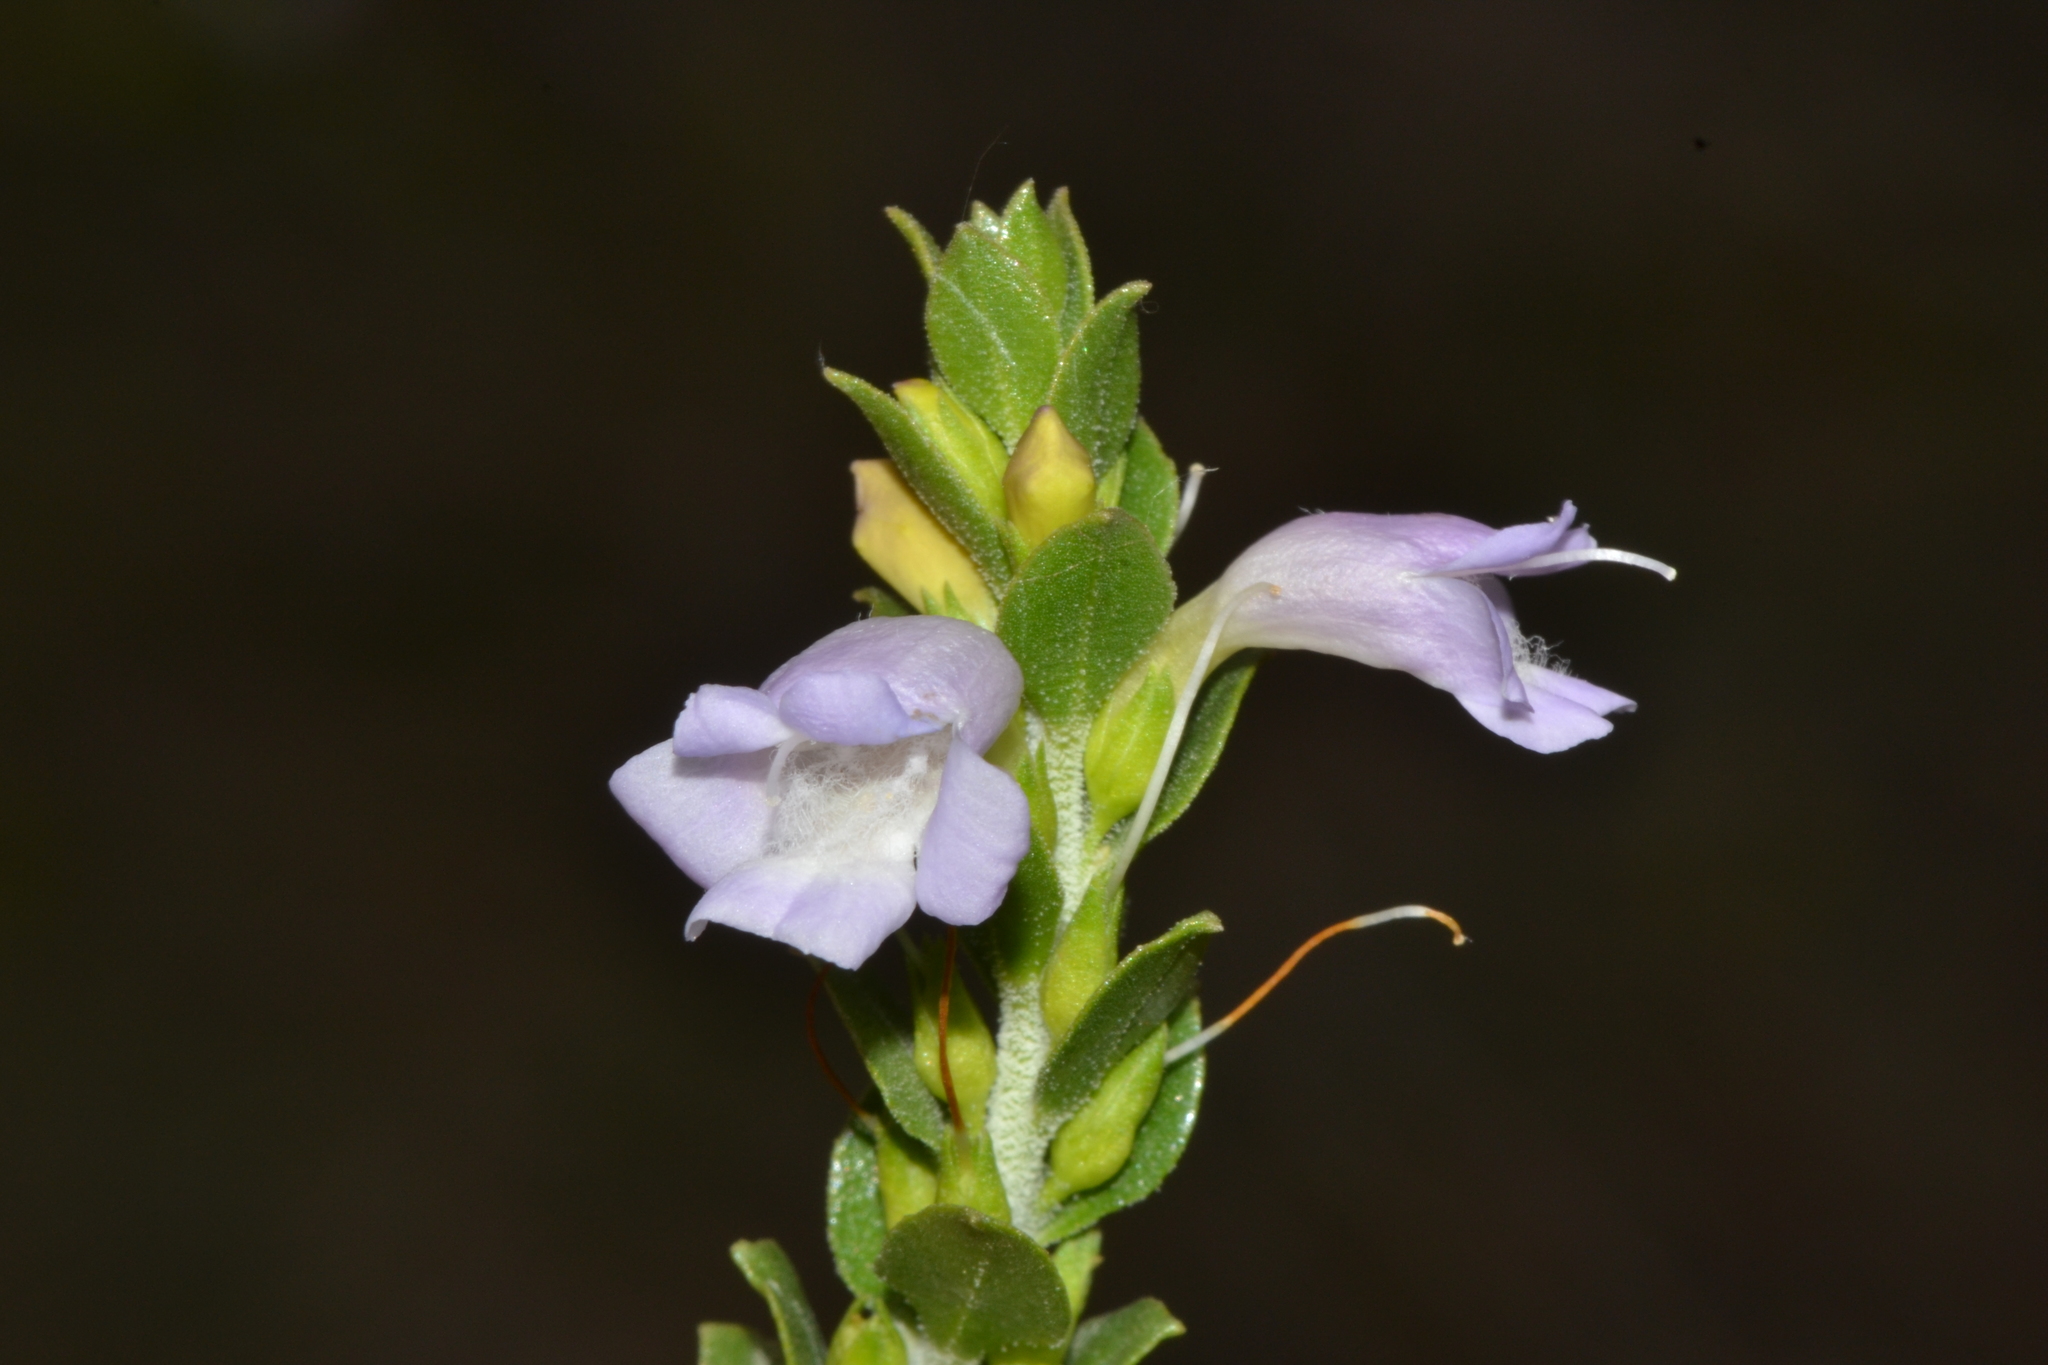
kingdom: Plantae
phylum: Tracheophyta
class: Magnoliopsida
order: Lamiales
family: Scrophulariaceae
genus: Eremophila
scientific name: Eremophila lehmanniana
